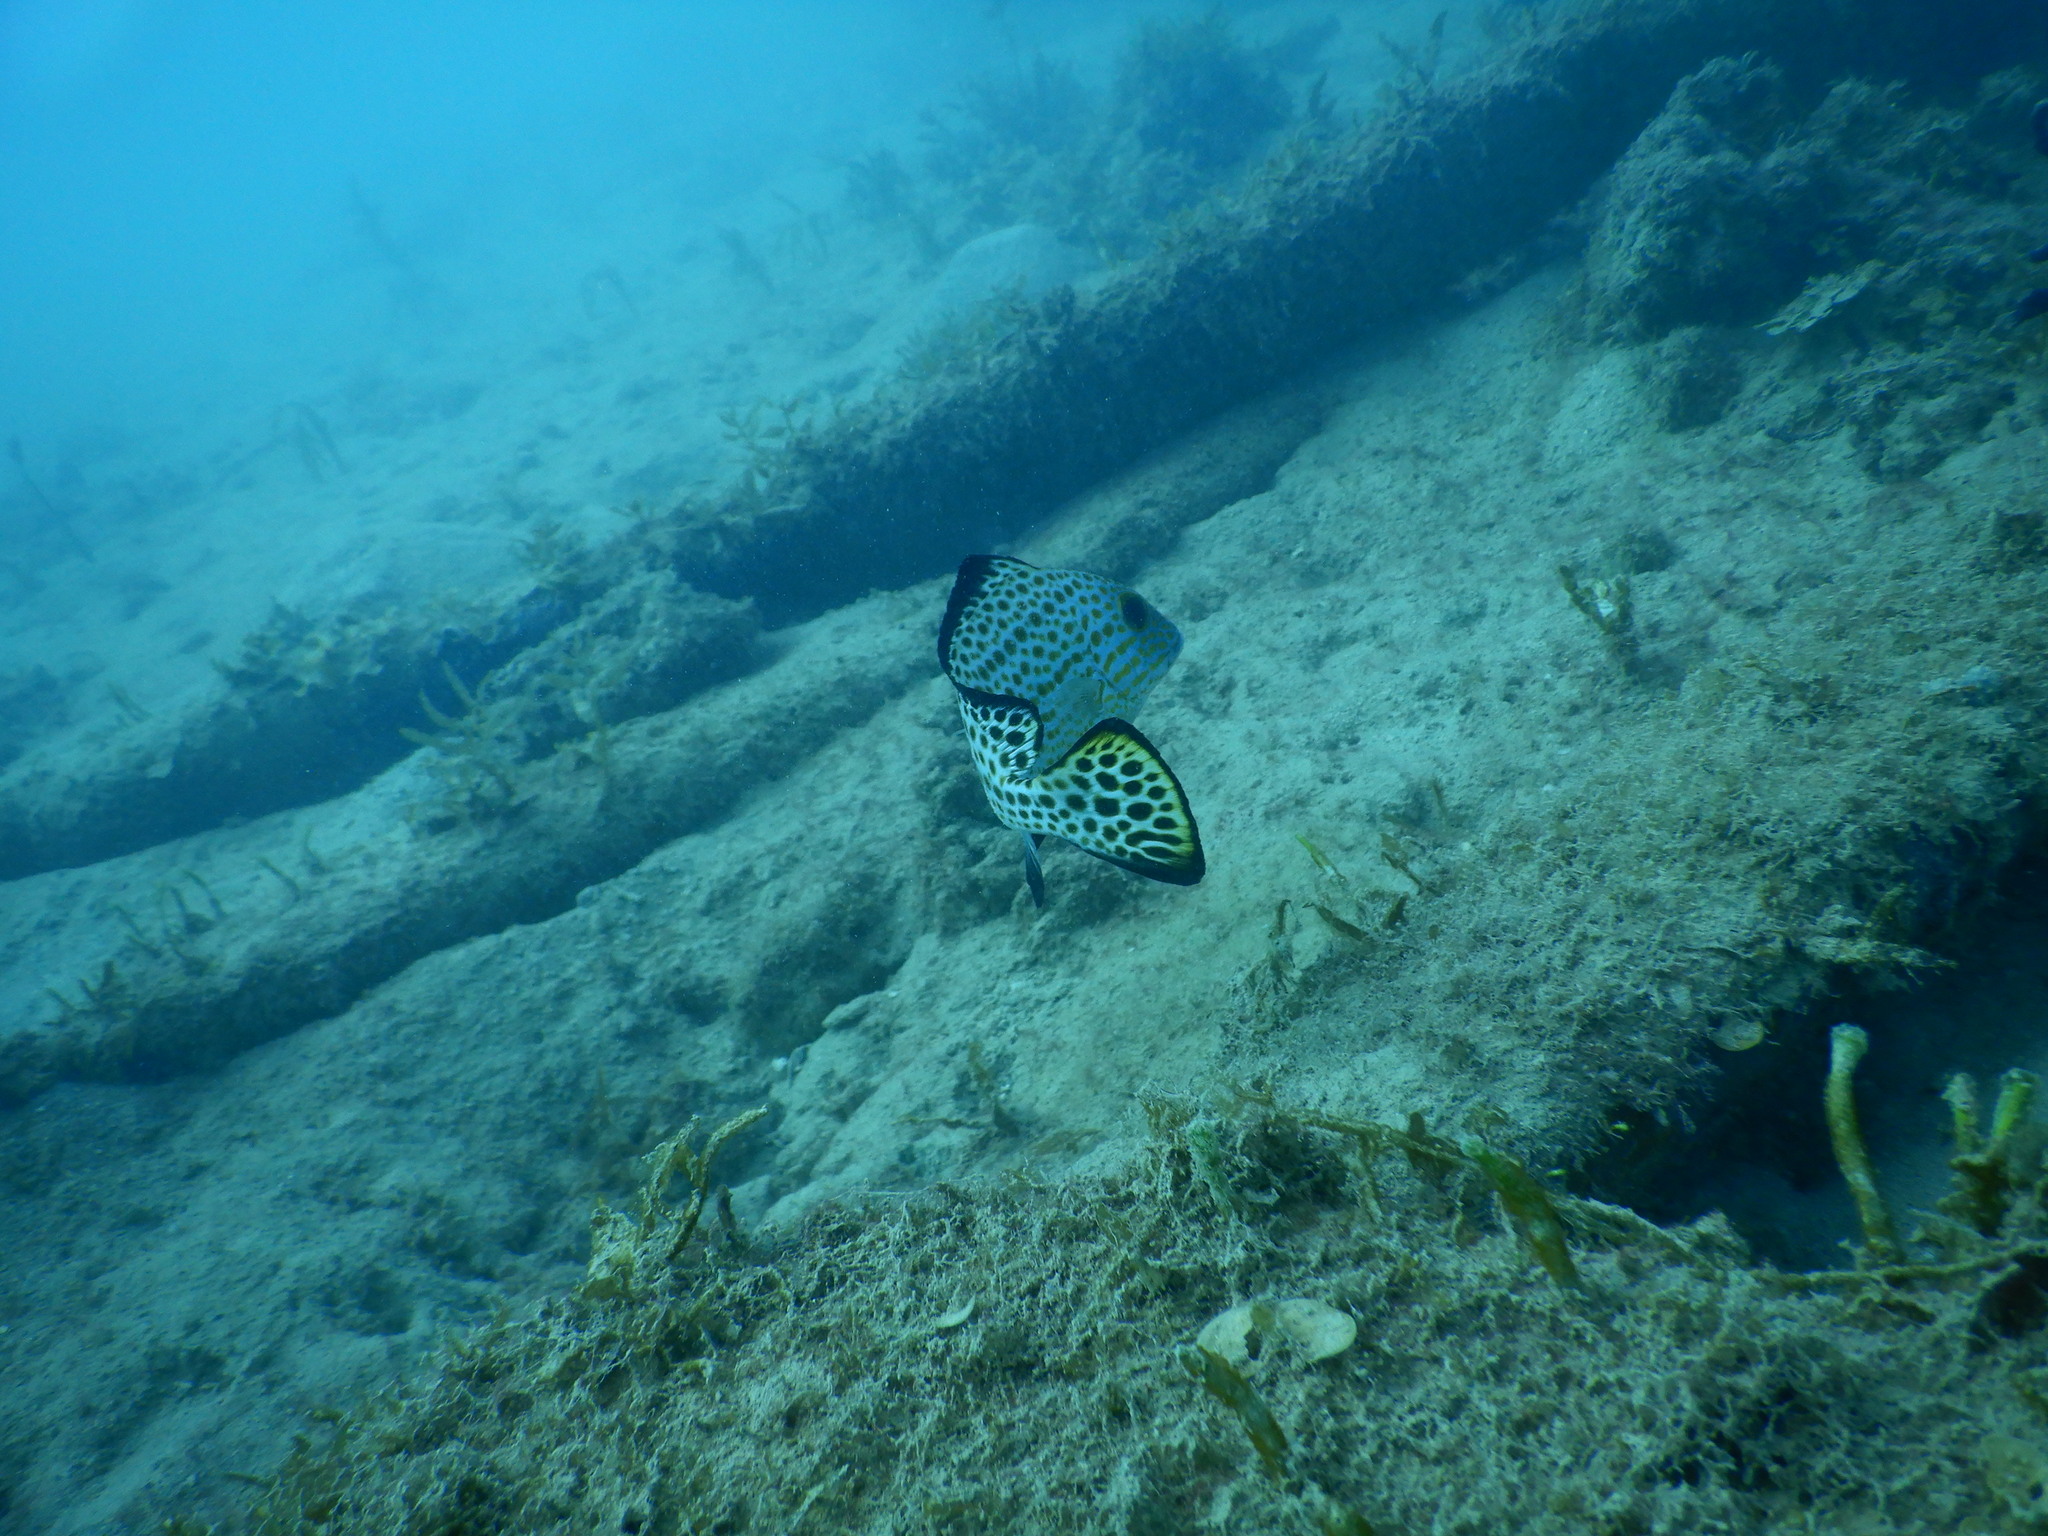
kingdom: Animalia
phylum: Chordata
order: Perciformes
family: Haemulidae
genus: Diagramma
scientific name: Diagramma pictum
